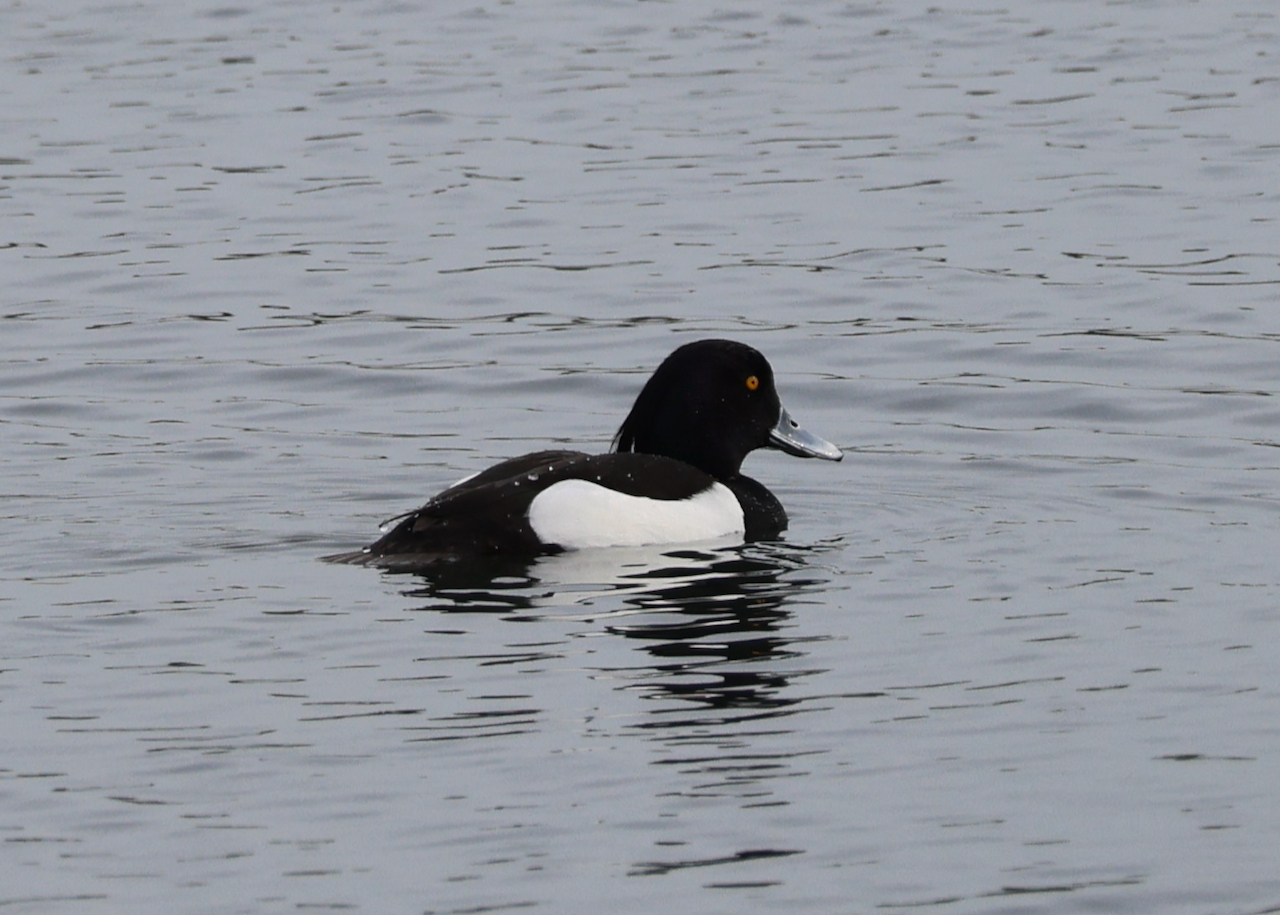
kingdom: Animalia
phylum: Chordata
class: Aves
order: Anseriformes
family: Anatidae
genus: Aythya
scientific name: Aythya fuligula
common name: Tufted duck
